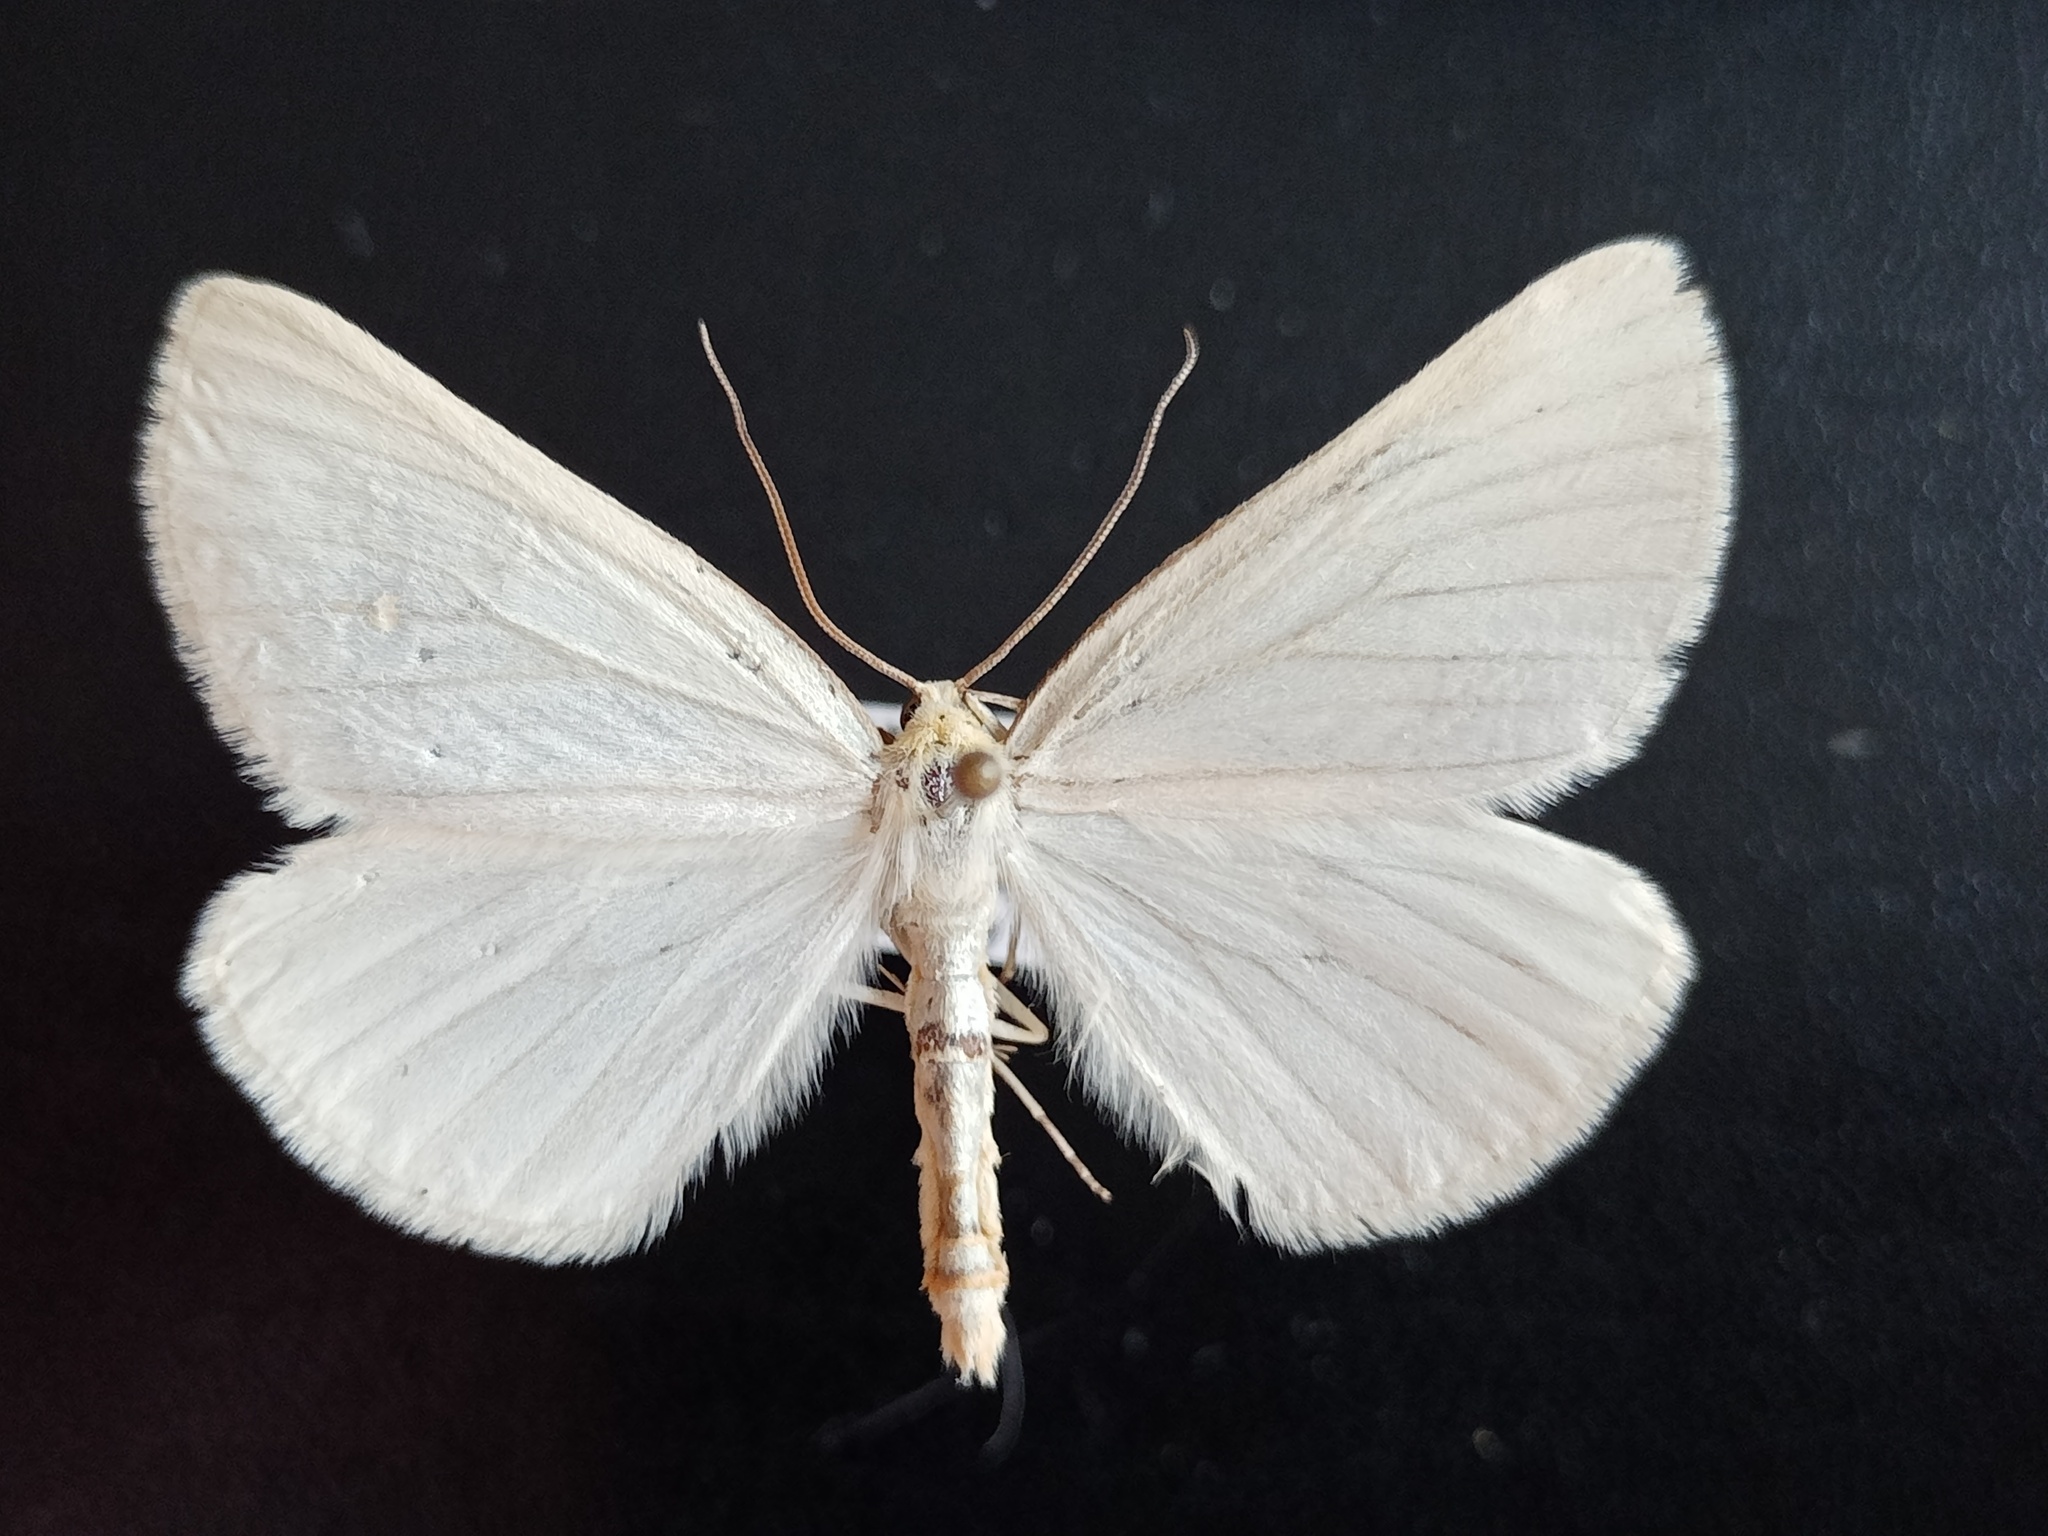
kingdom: Animalia
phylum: Arthropoda
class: Insecta
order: Lepidoptera
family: Geometridae
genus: Siona
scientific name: Siona lineata
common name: Black-veined moth
